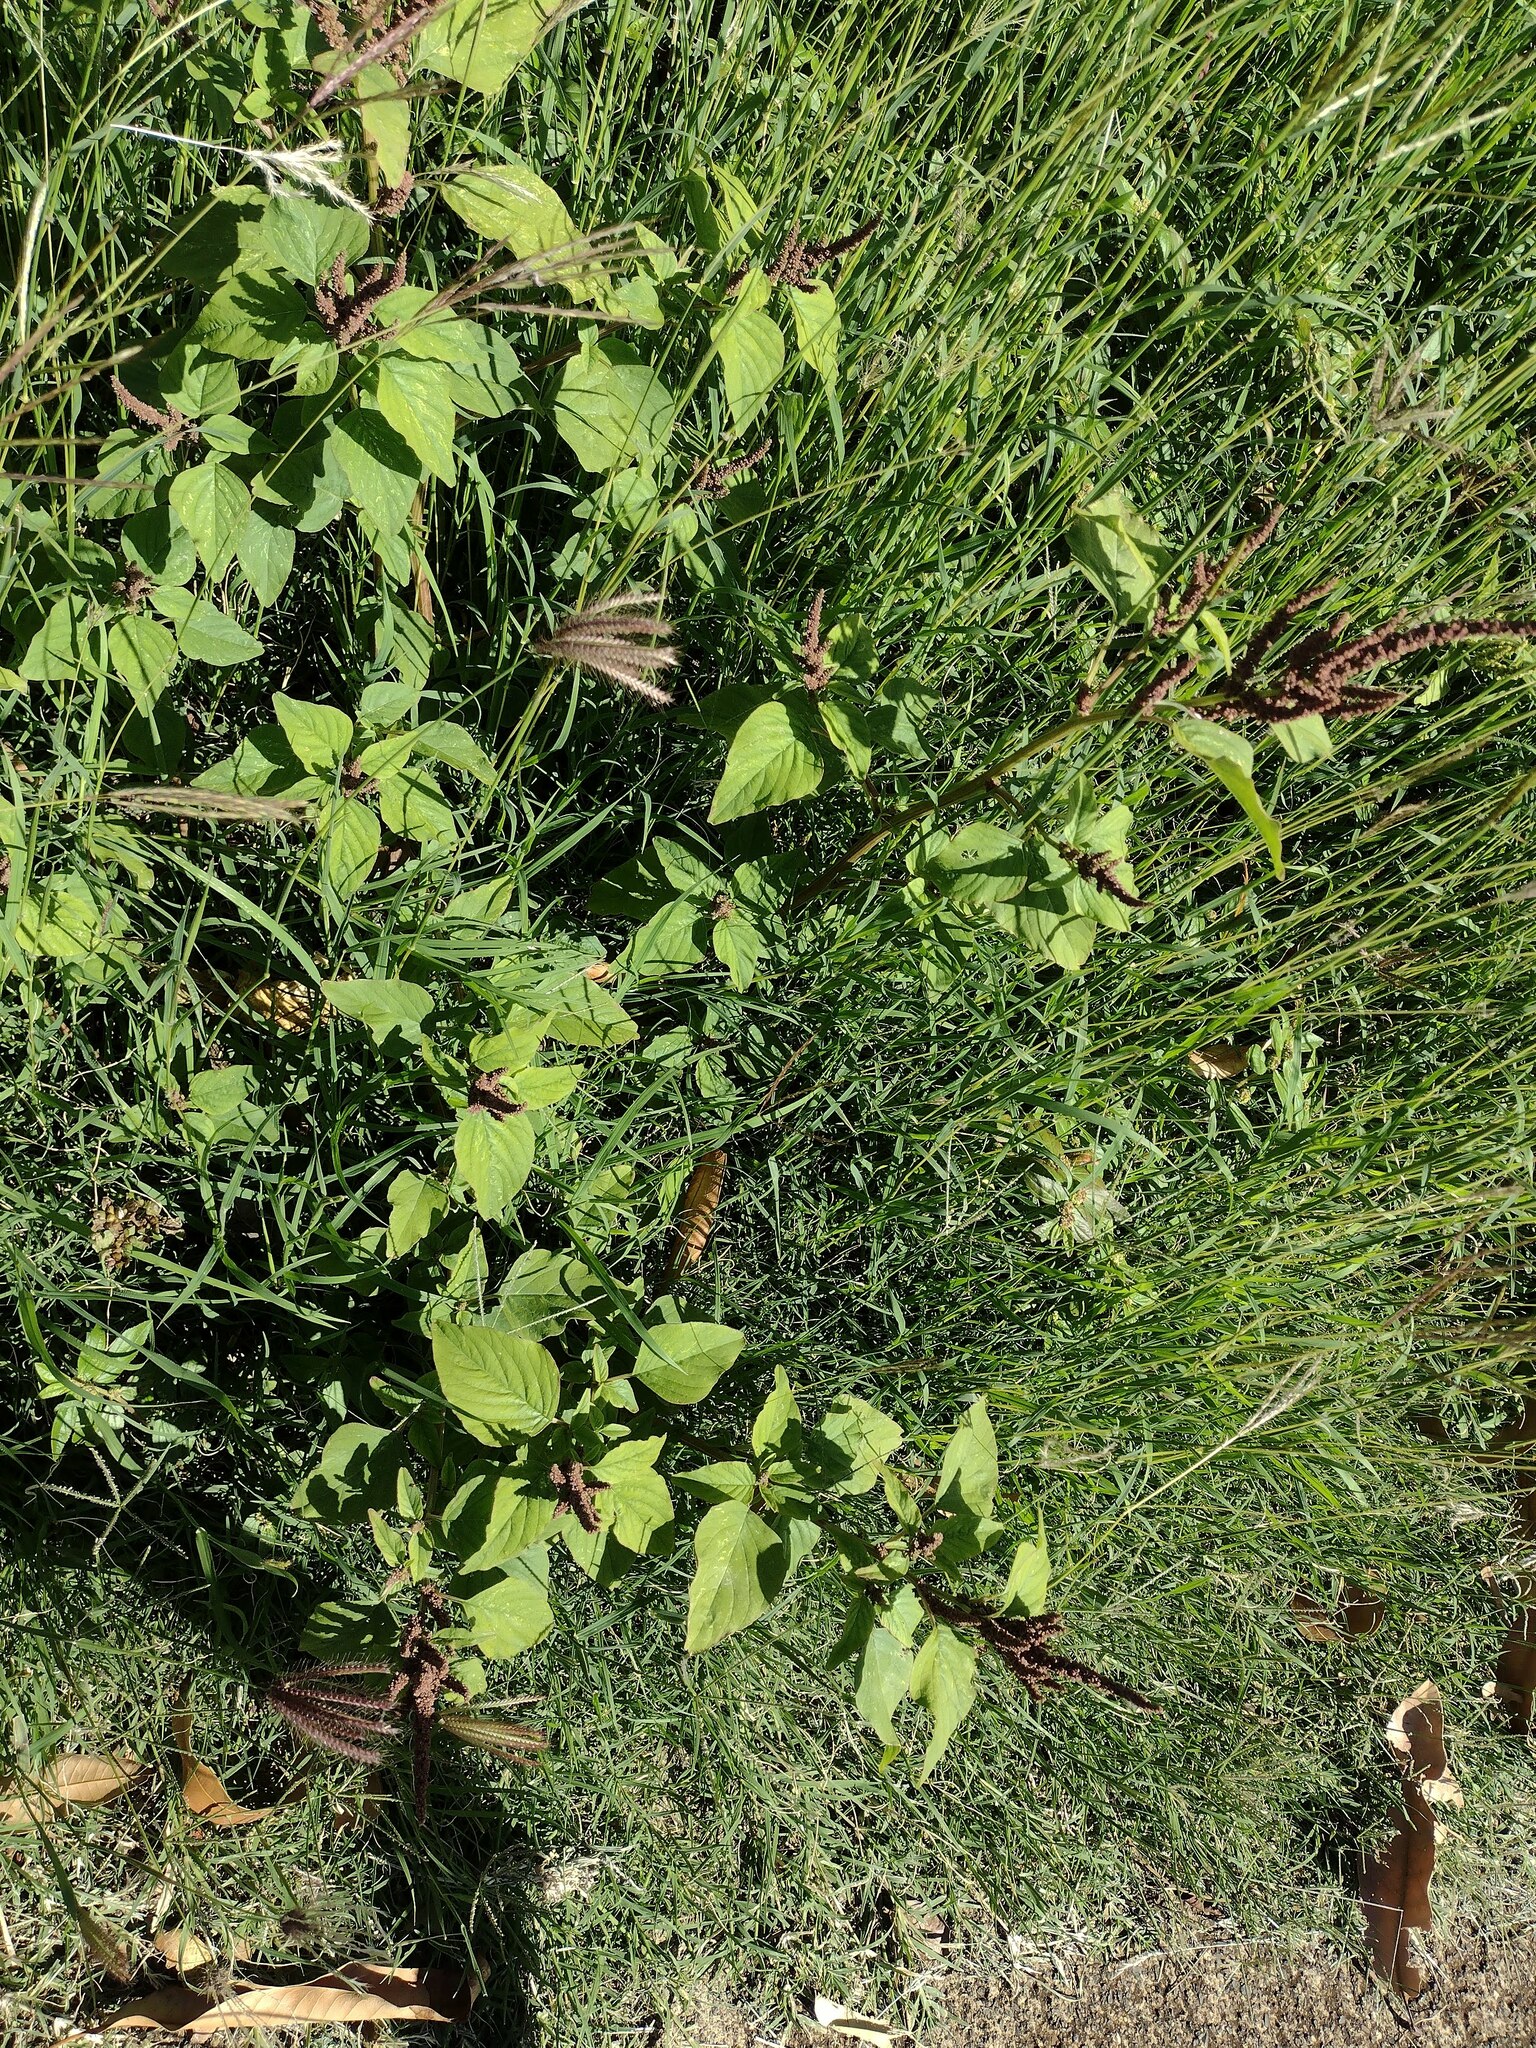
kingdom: Plantae
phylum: Tracheophyta
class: Magnoliopsida
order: Caryophyllales
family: Amaranthaceae
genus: Amaranthus
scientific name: Amaranthus viridis
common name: Slender amaranth
